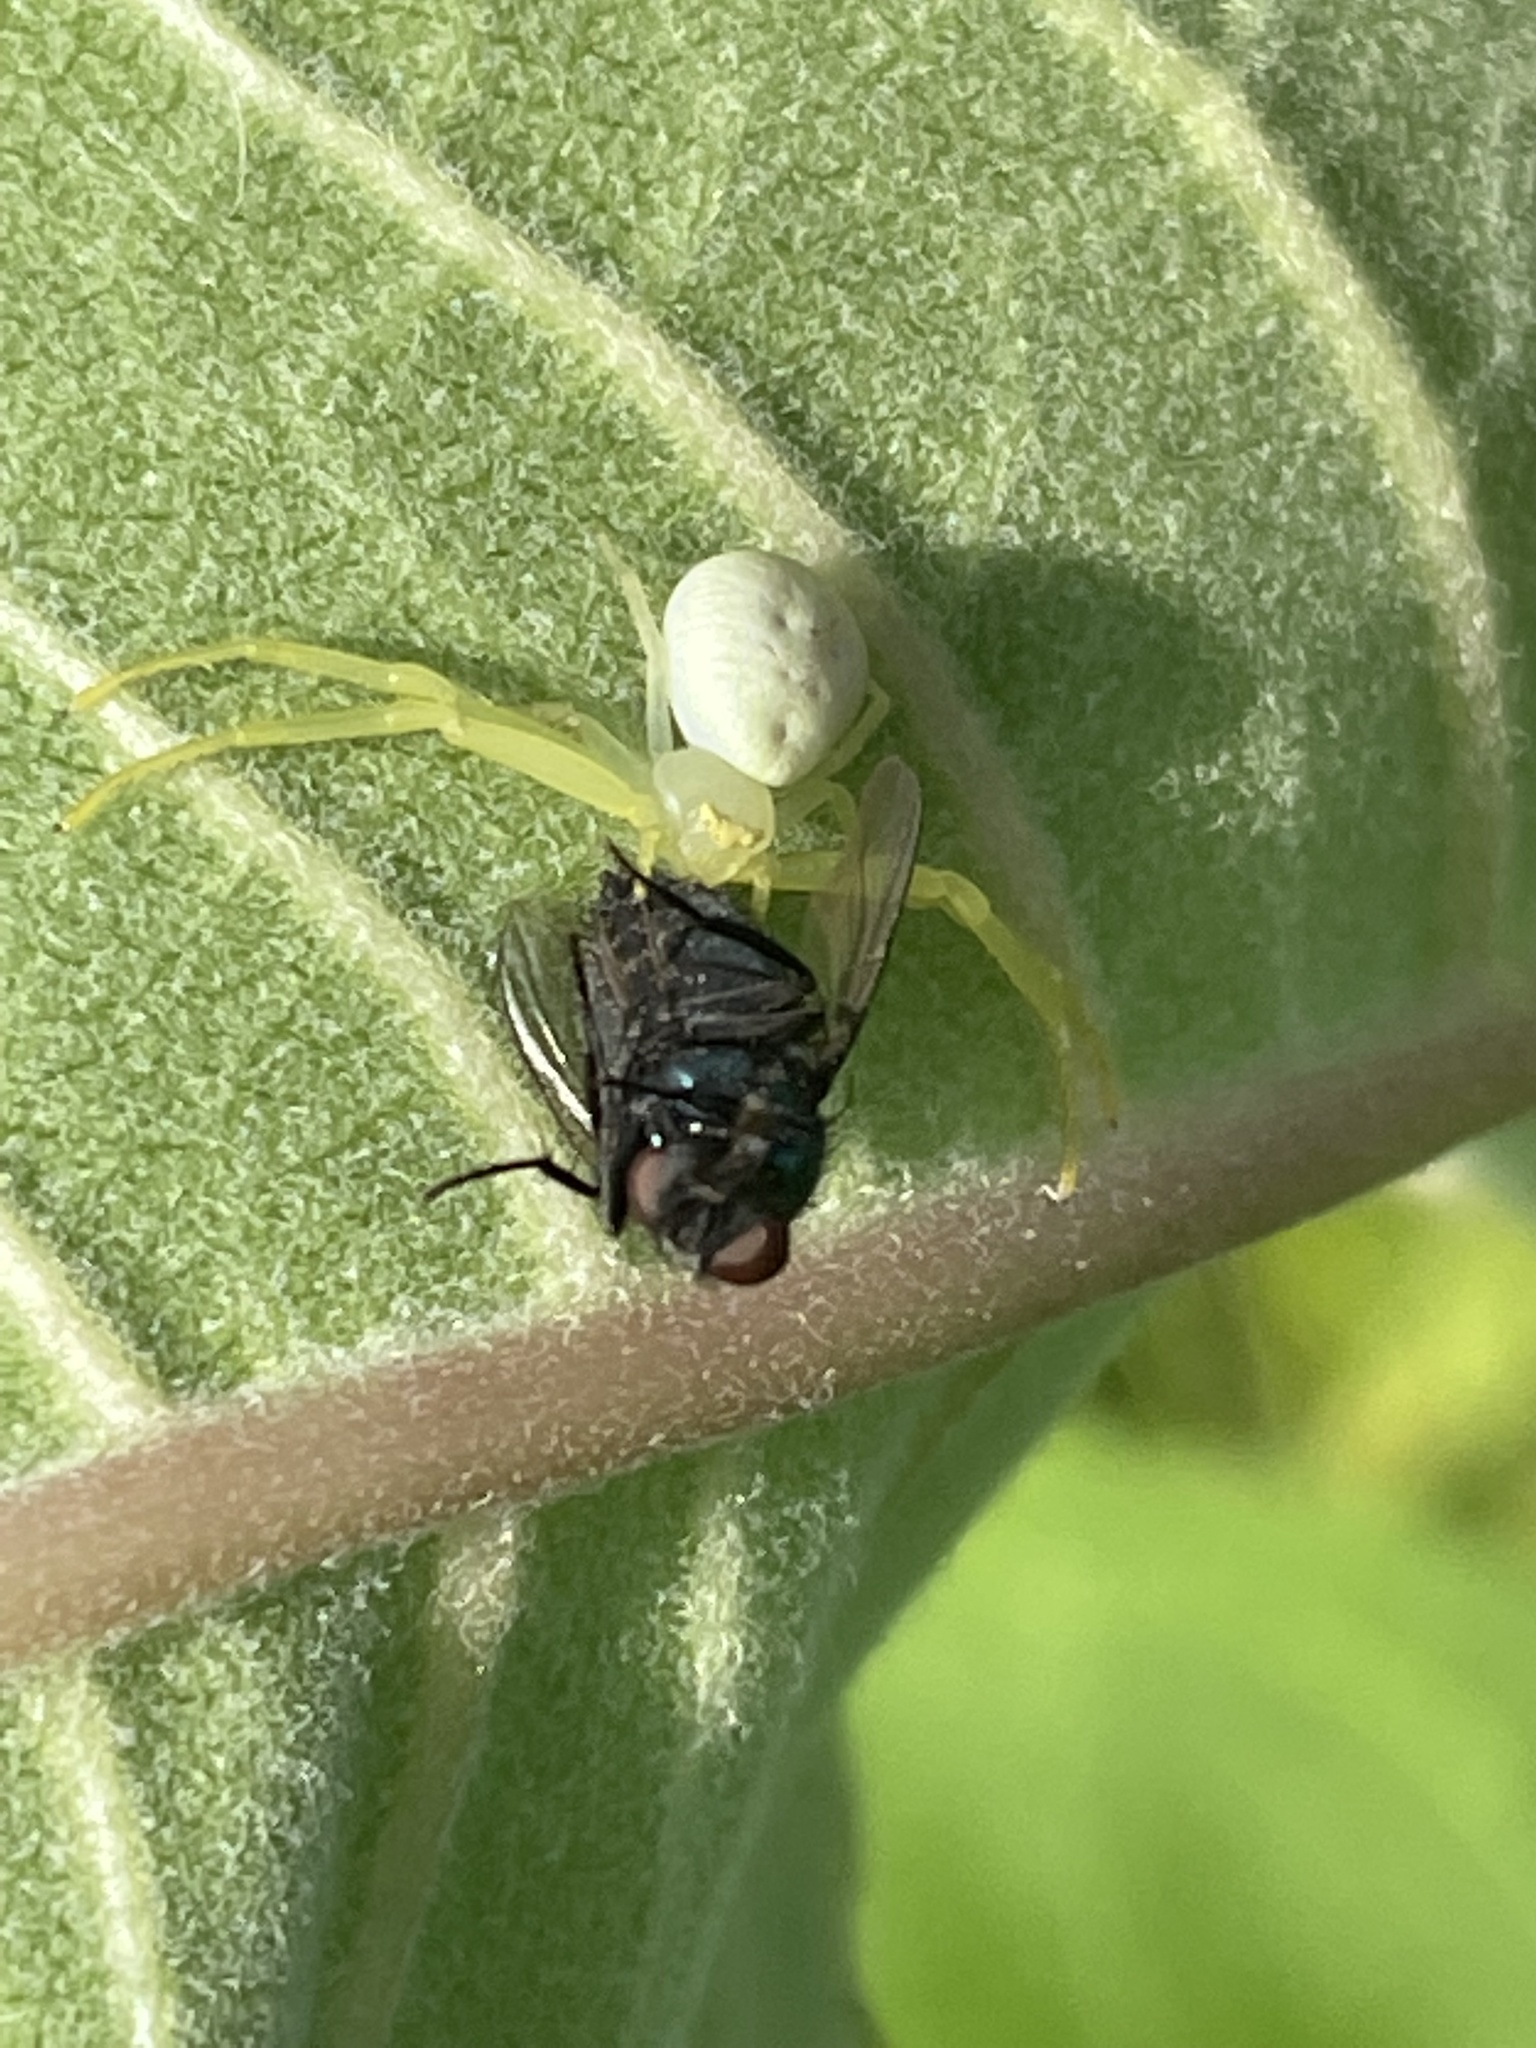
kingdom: Animalia
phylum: Arthropoda
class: Arachnida
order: Araneae
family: Thomisidae
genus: Misumessus
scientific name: Misumessus oblongus
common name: American green crab spider
